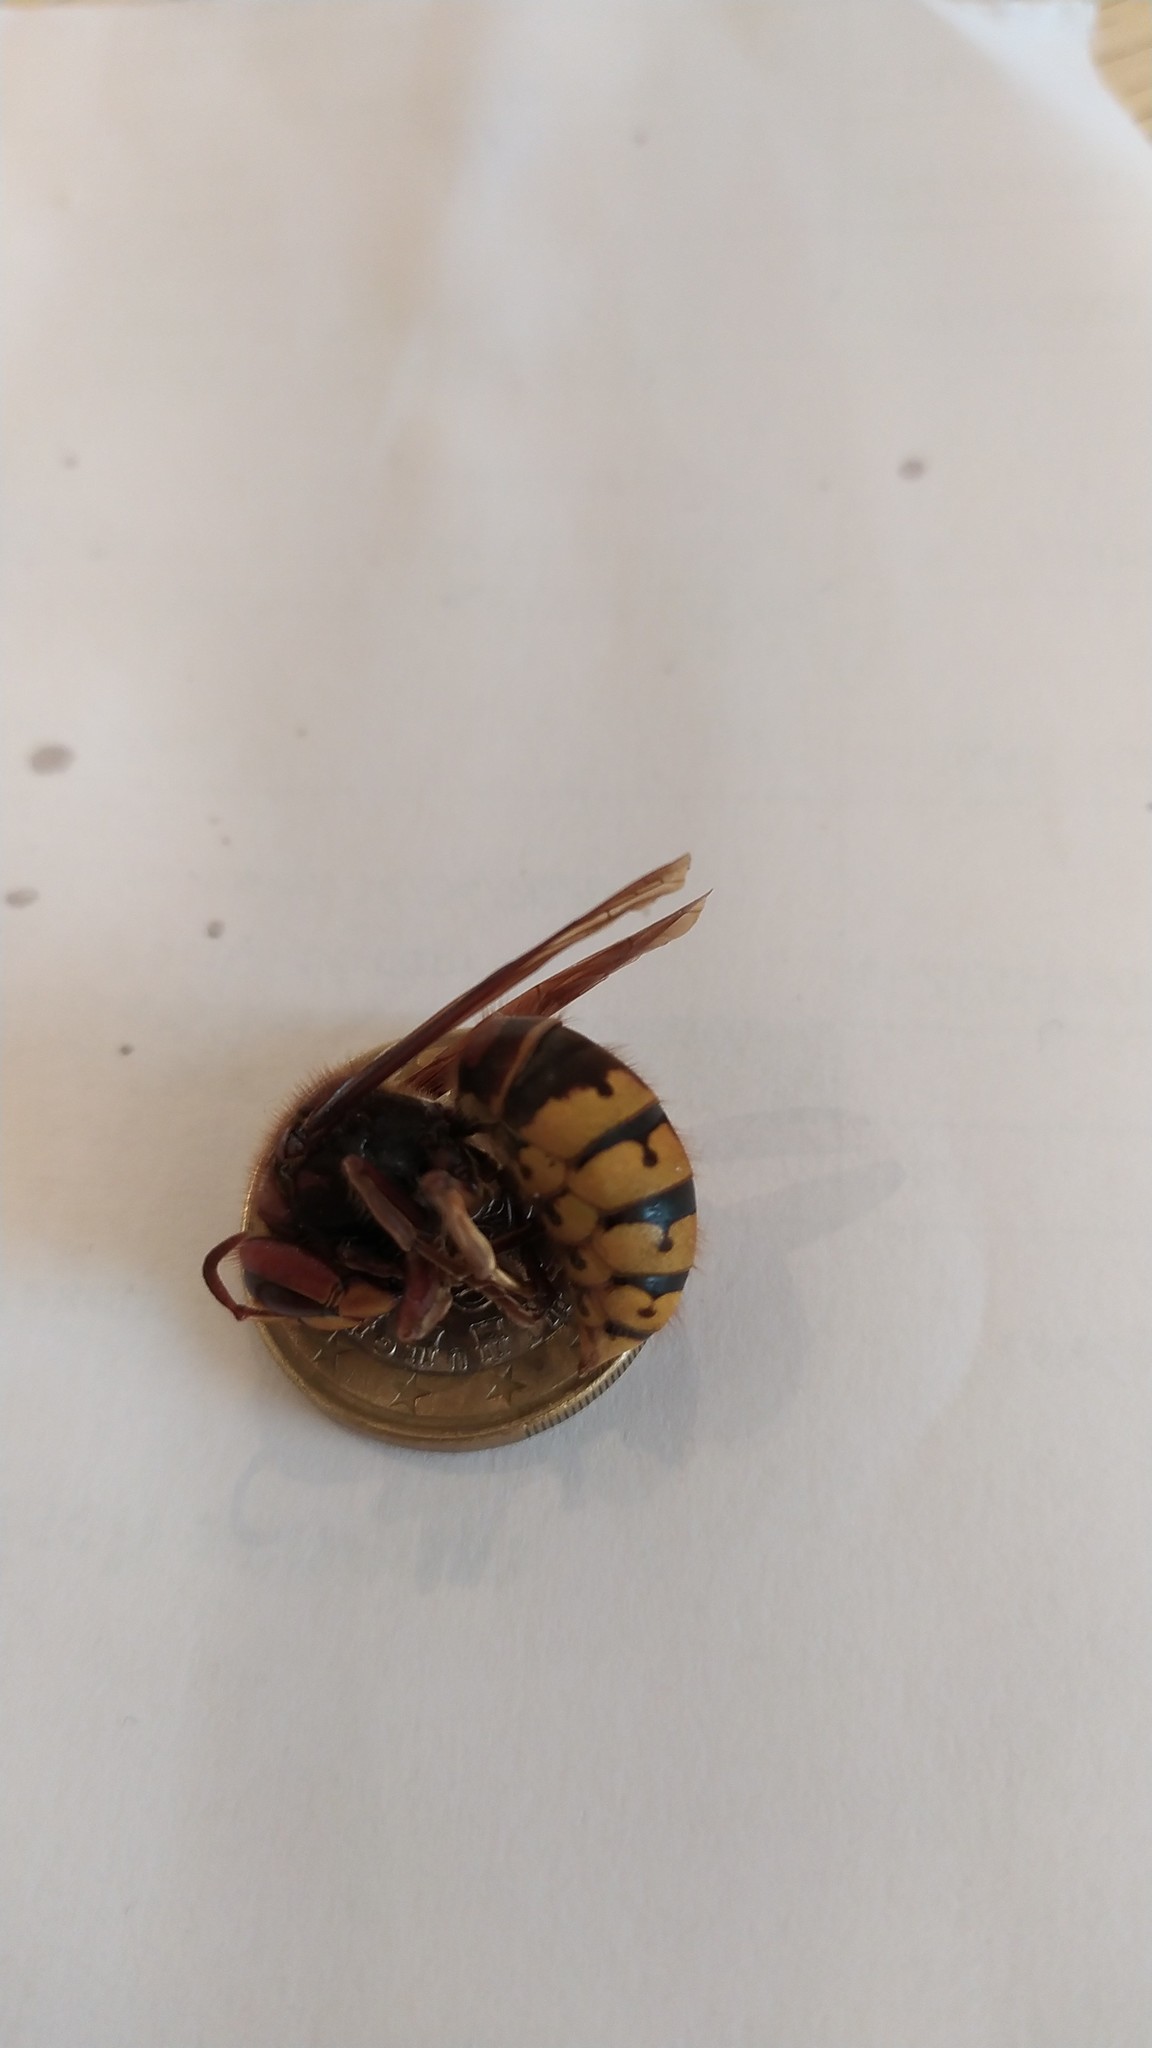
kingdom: Animalia
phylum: Arthropoda
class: Insecta
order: Hymenoptera
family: Vespidae
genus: Vespa
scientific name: Vespa crabro
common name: Hornet
